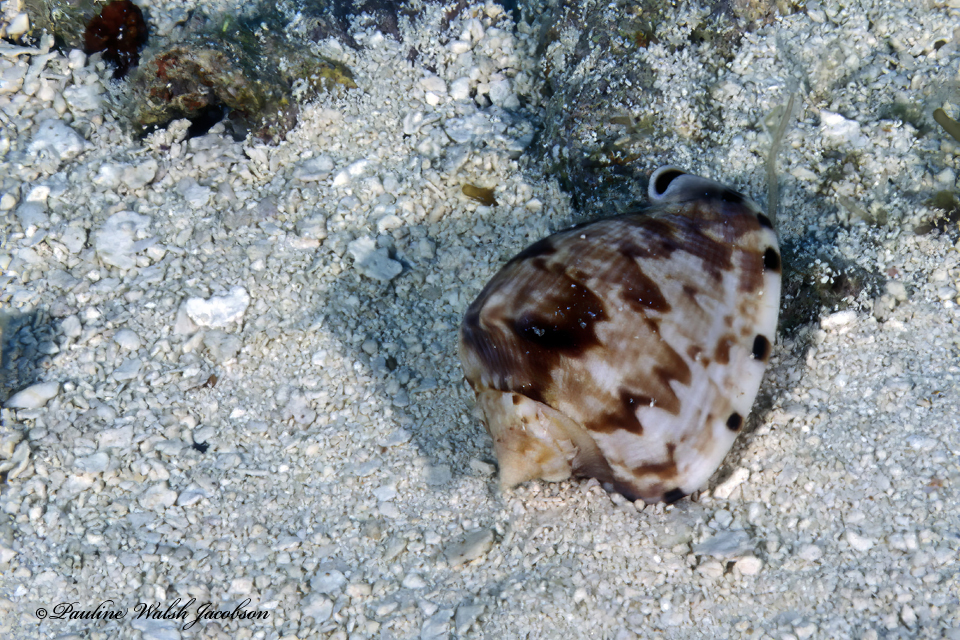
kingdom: Animalia
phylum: Mollusca
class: Gastropoda
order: Littorinimorpha
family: Cassidae
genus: Cassis
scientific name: Cassis tuberosa
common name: Caribbean helmet
